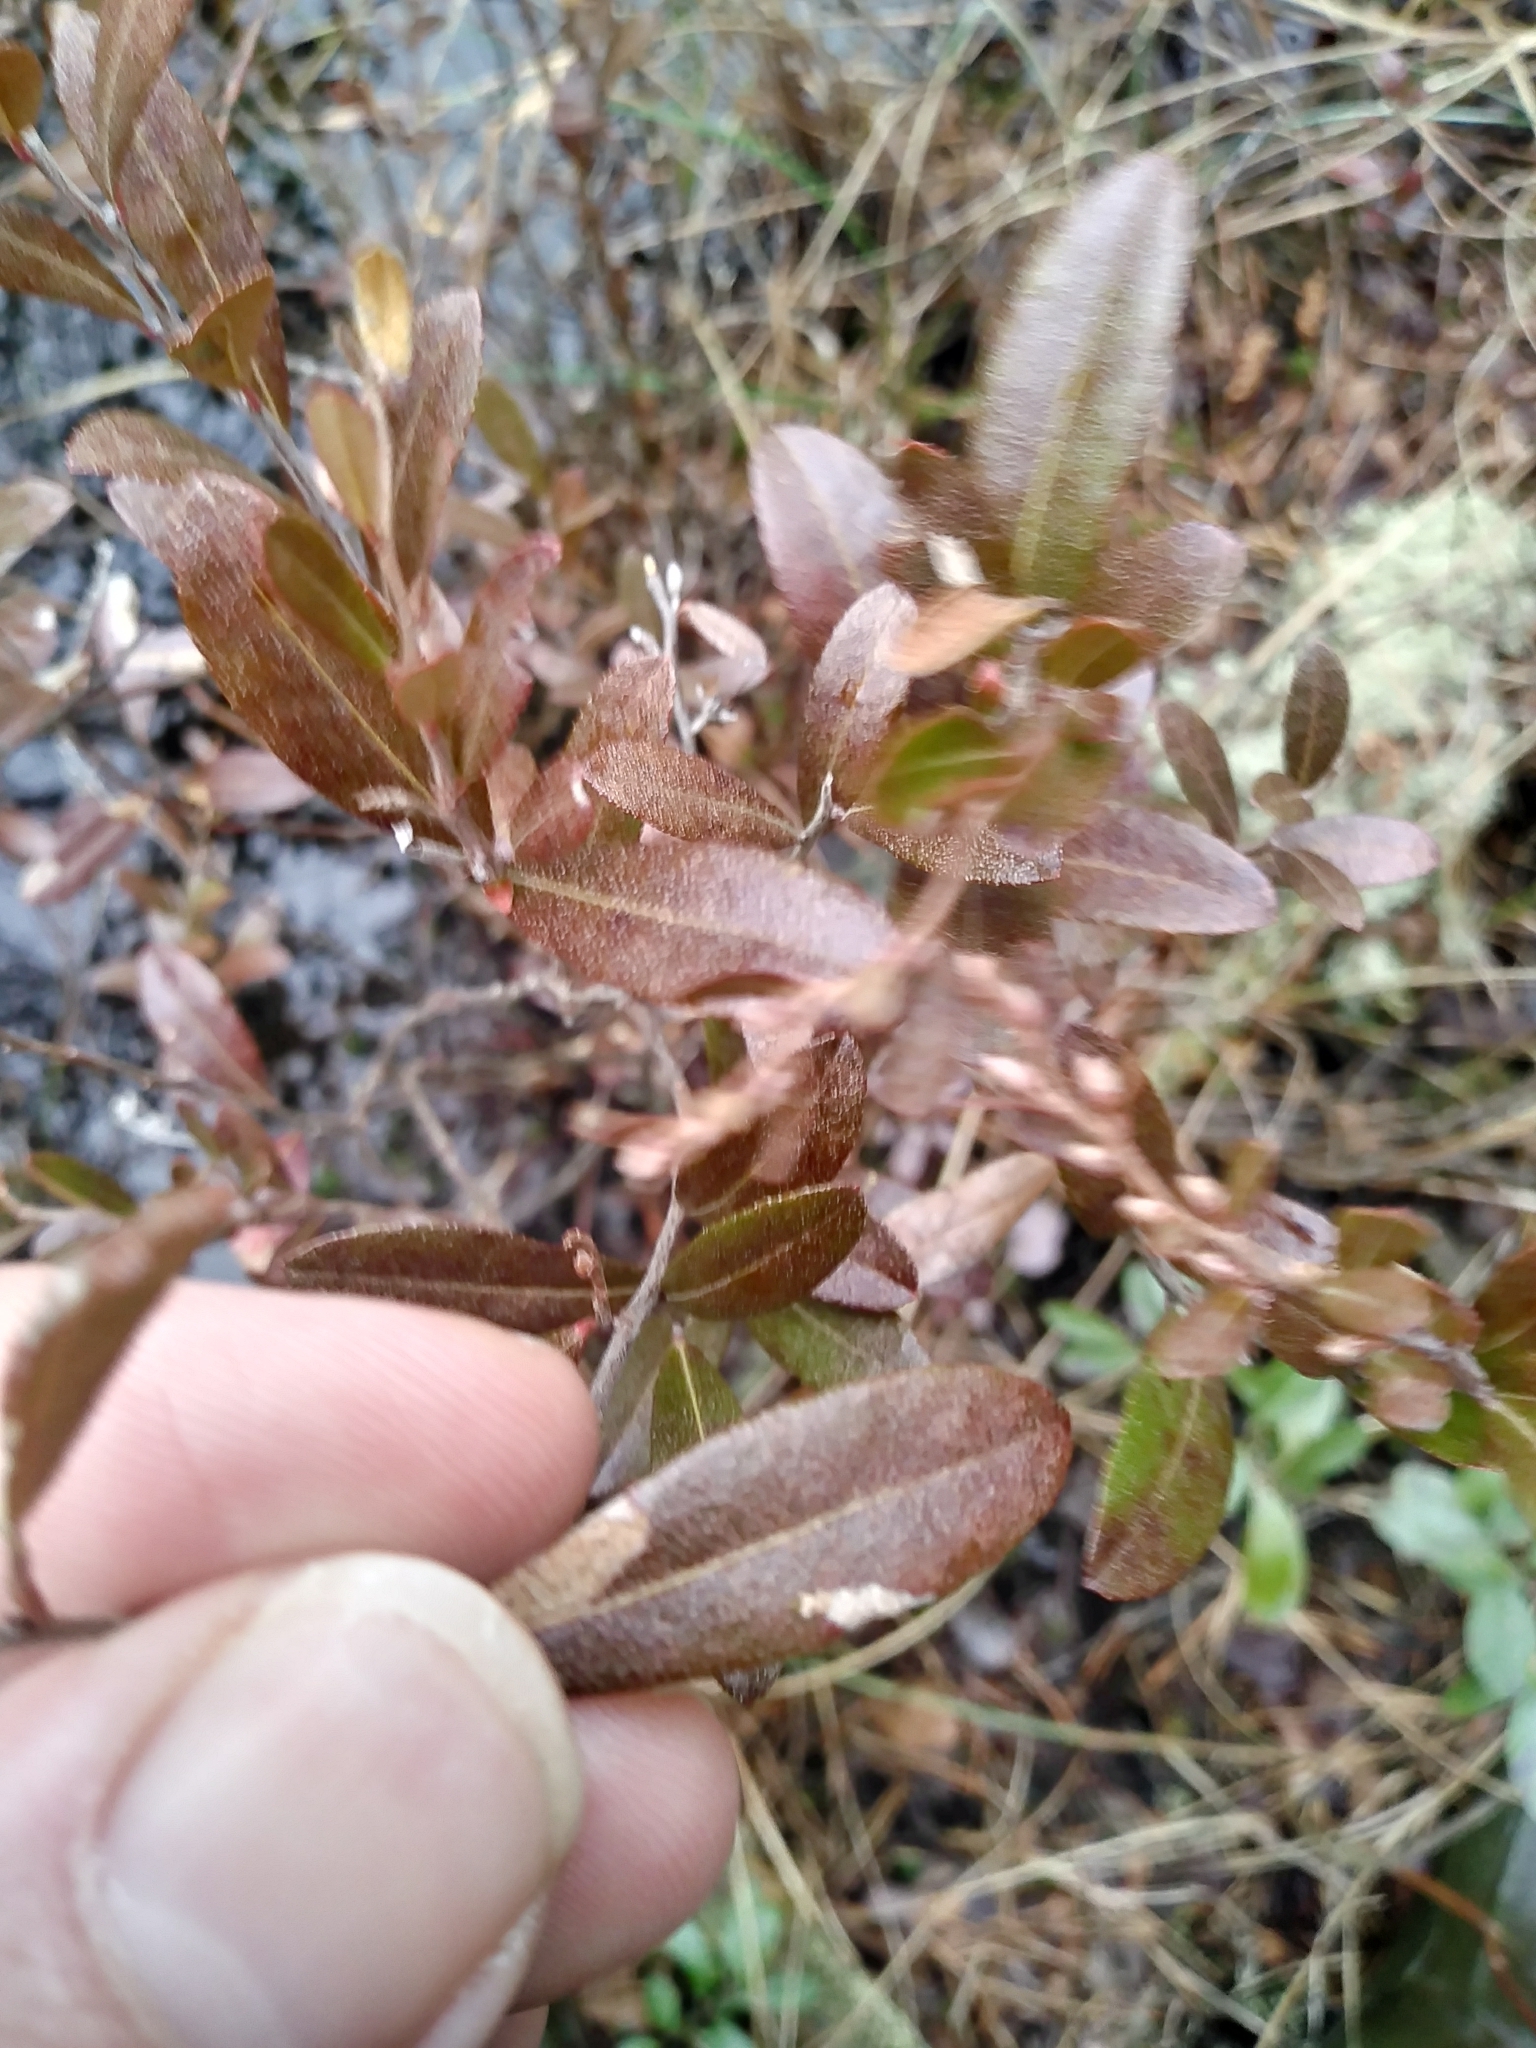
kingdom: Plantae
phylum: Tracheophyta
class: Magnoliopsida
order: Ericales
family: Ericaceae
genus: Chamaedaphne
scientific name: Chamaedaphne calyculata
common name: Leatherleaf
